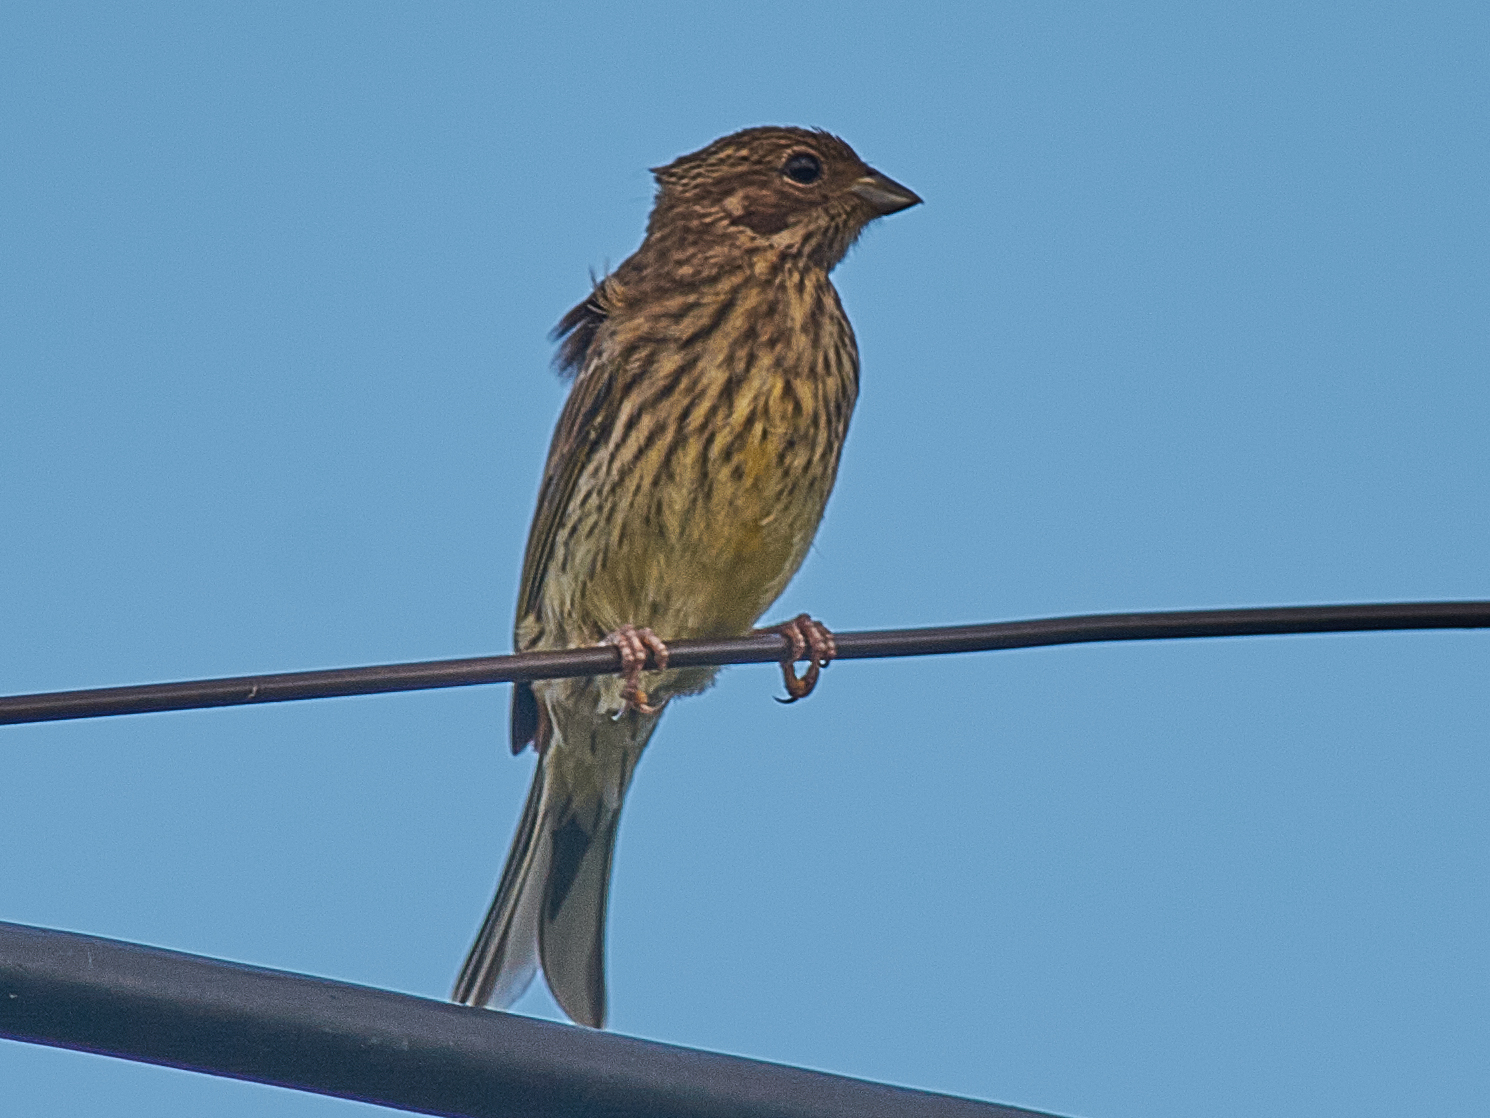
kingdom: Animalia
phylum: Chordata
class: Aves
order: Passeriformes
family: Emberizidae
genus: Emberiza
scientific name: Emberiza citrinella
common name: Yellowhammer
